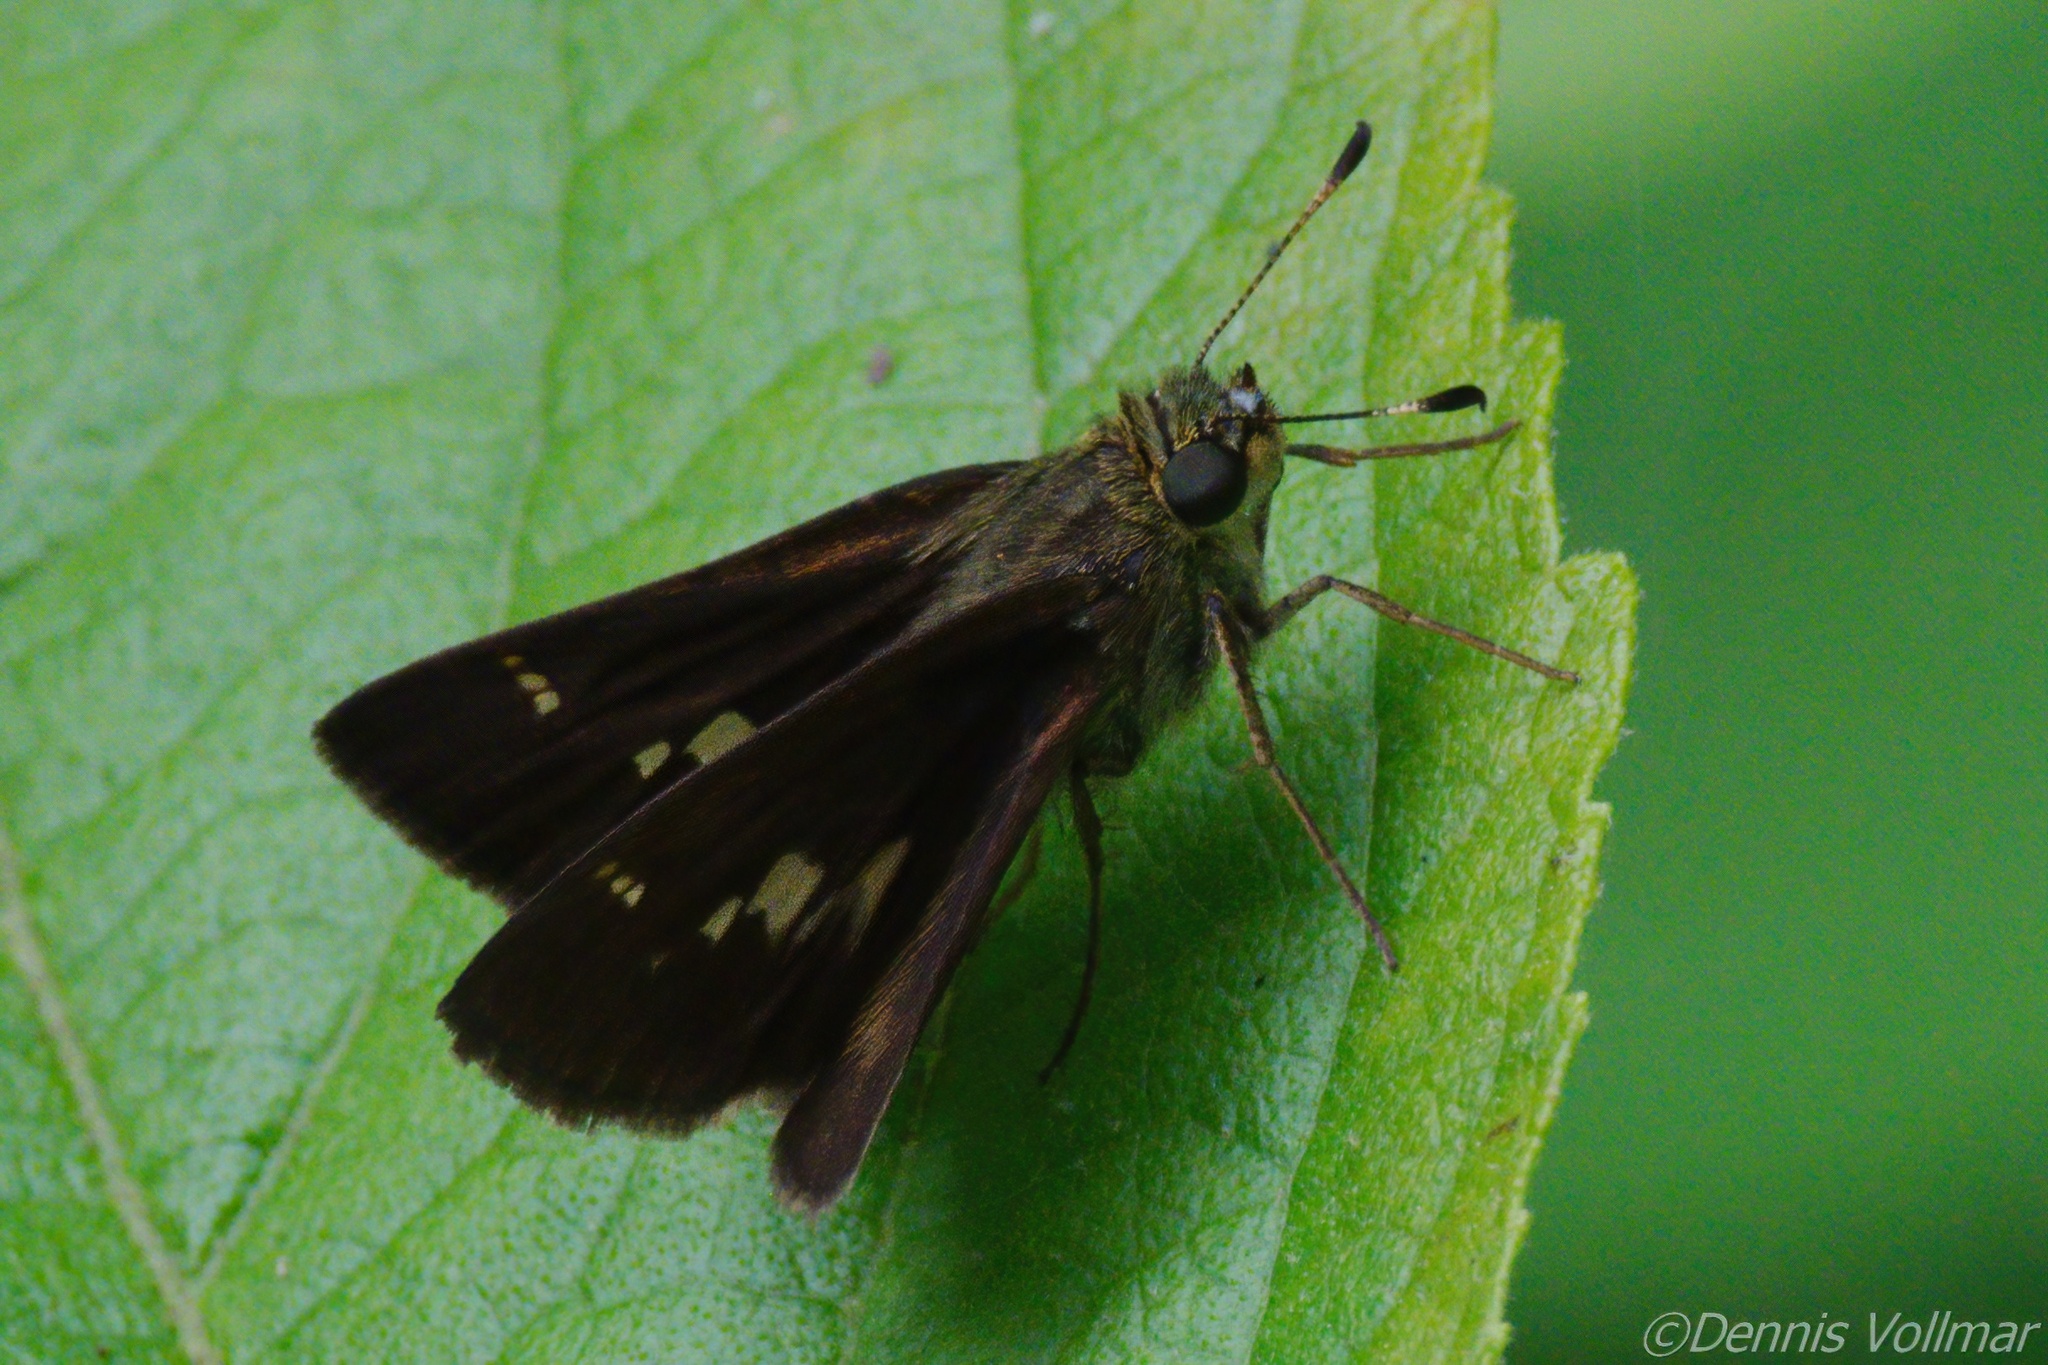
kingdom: Animalia
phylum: Arthropoda
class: Insecta
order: Lepidoptera
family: Hesperiidae
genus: Vernia
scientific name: Vernia verna
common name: Little glassywing
